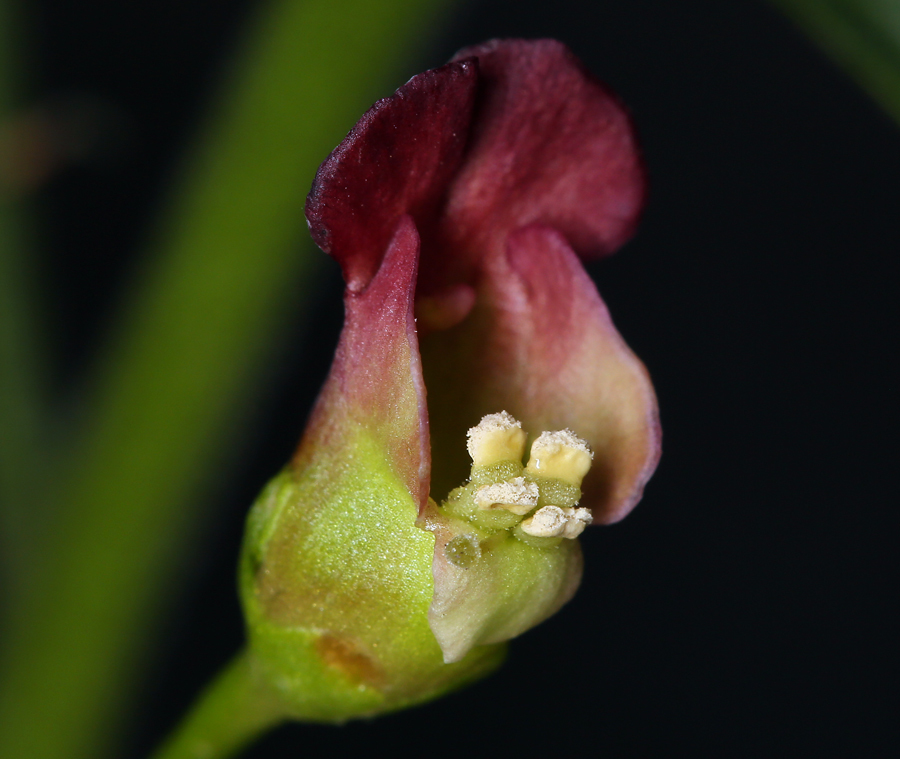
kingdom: Plantae
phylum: Tracheophyta
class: Magnoliopsida
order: Lamiales
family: Scrophulariaceae
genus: Scrophularia
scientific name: Scrophularia desertorum
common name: Desert figwort
